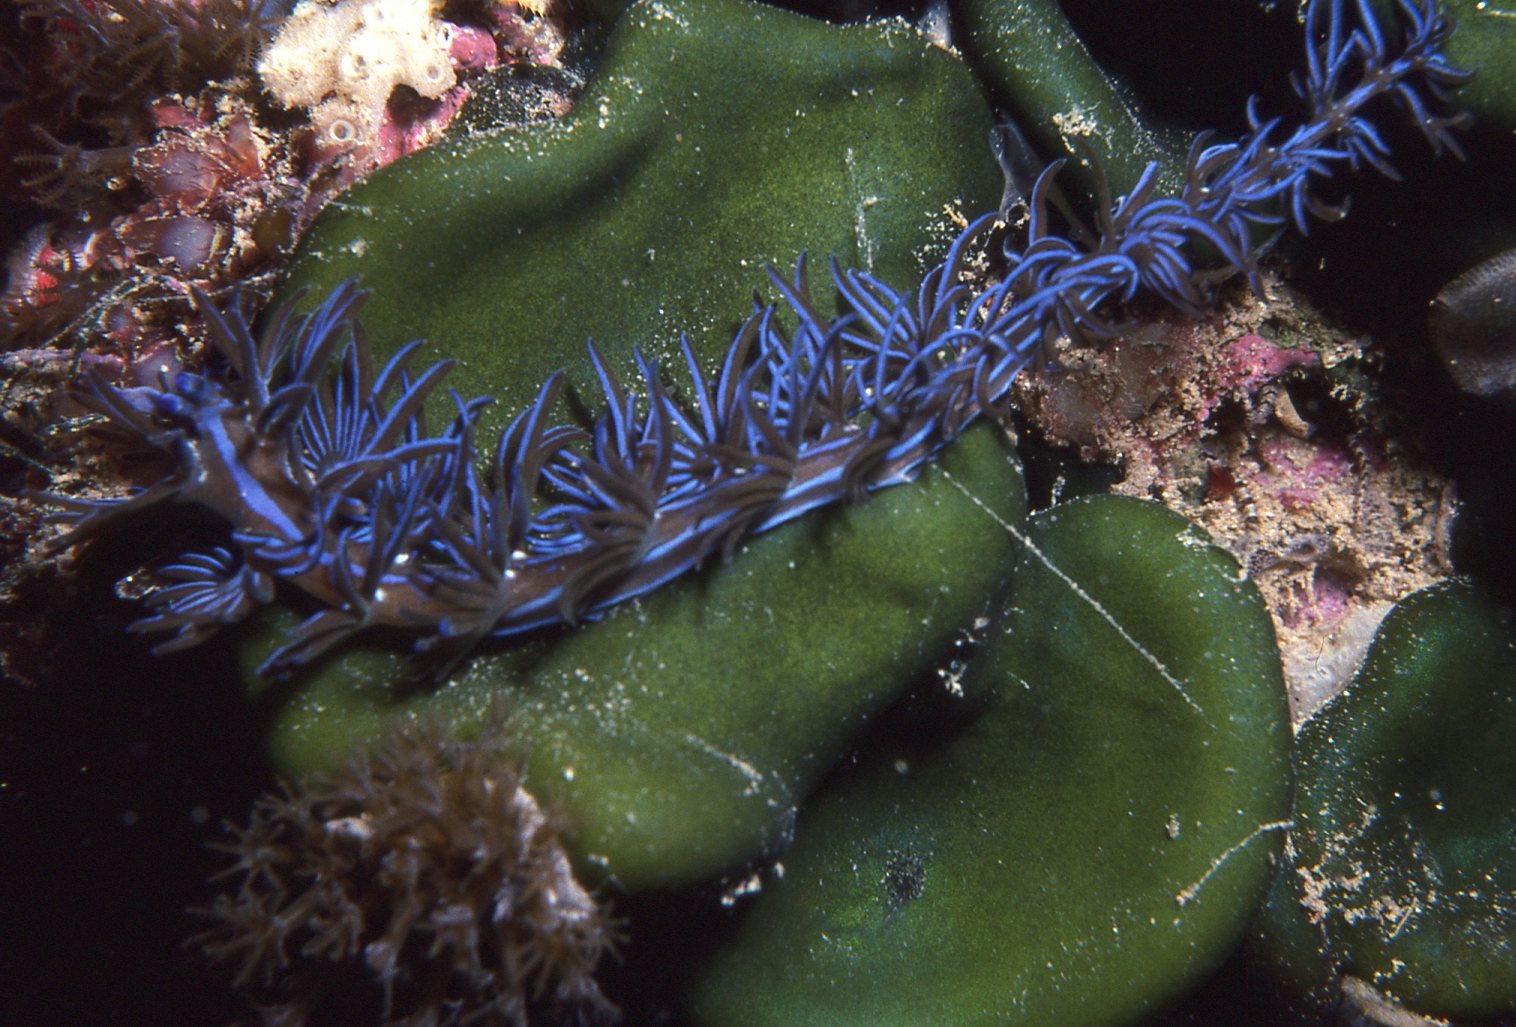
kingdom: Animalia
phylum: Mollusca
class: Gastropoda
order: Nudibranchia
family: Facelinidae
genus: Pteraeolidia
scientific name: Pteraeolidia ianthina
